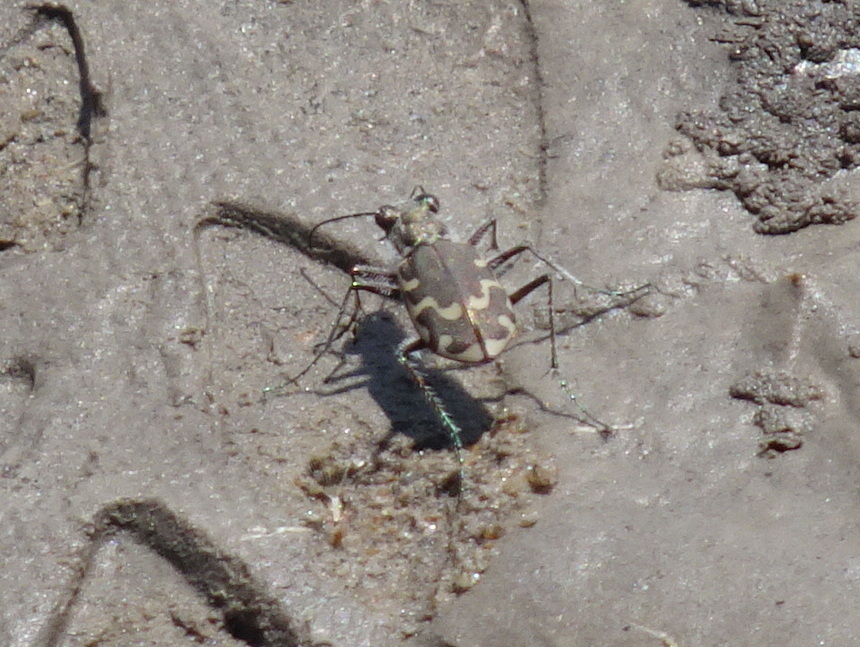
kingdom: Animalia
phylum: Arthropoda
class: Insecta
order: Coleoptera
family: Carabidae
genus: Cicindela
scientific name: Cicindela repanda
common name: Bronzed tiger beetle
